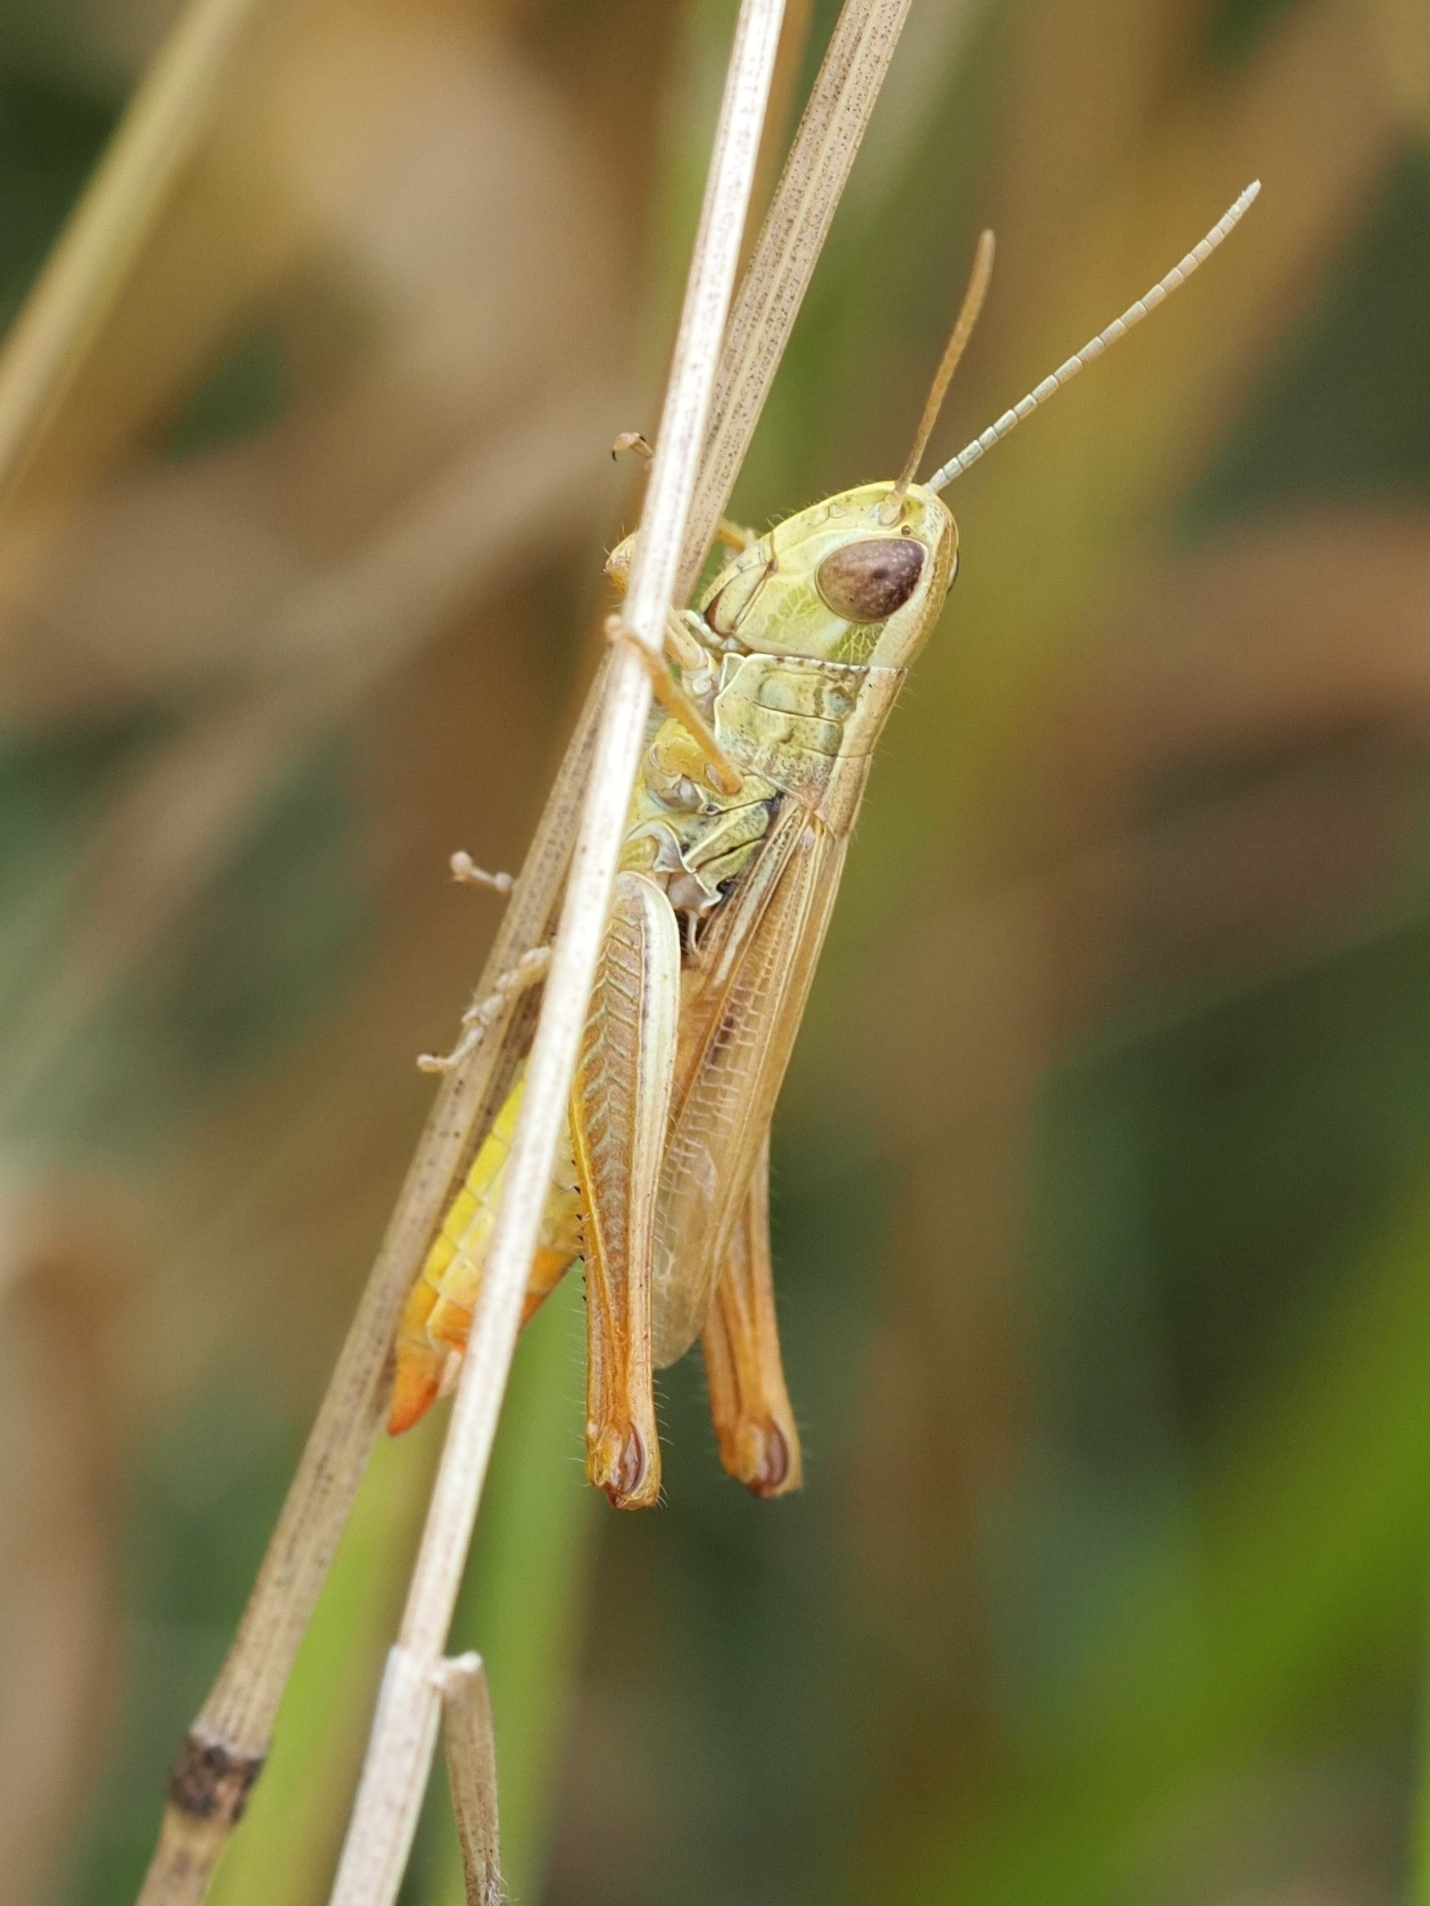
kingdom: Animalia
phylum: Arthropoda
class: Insecta
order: Orthoptera
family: Acrididae
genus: Euchorthippus
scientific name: Euchorthippus declivus
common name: Common straw grasshopper
